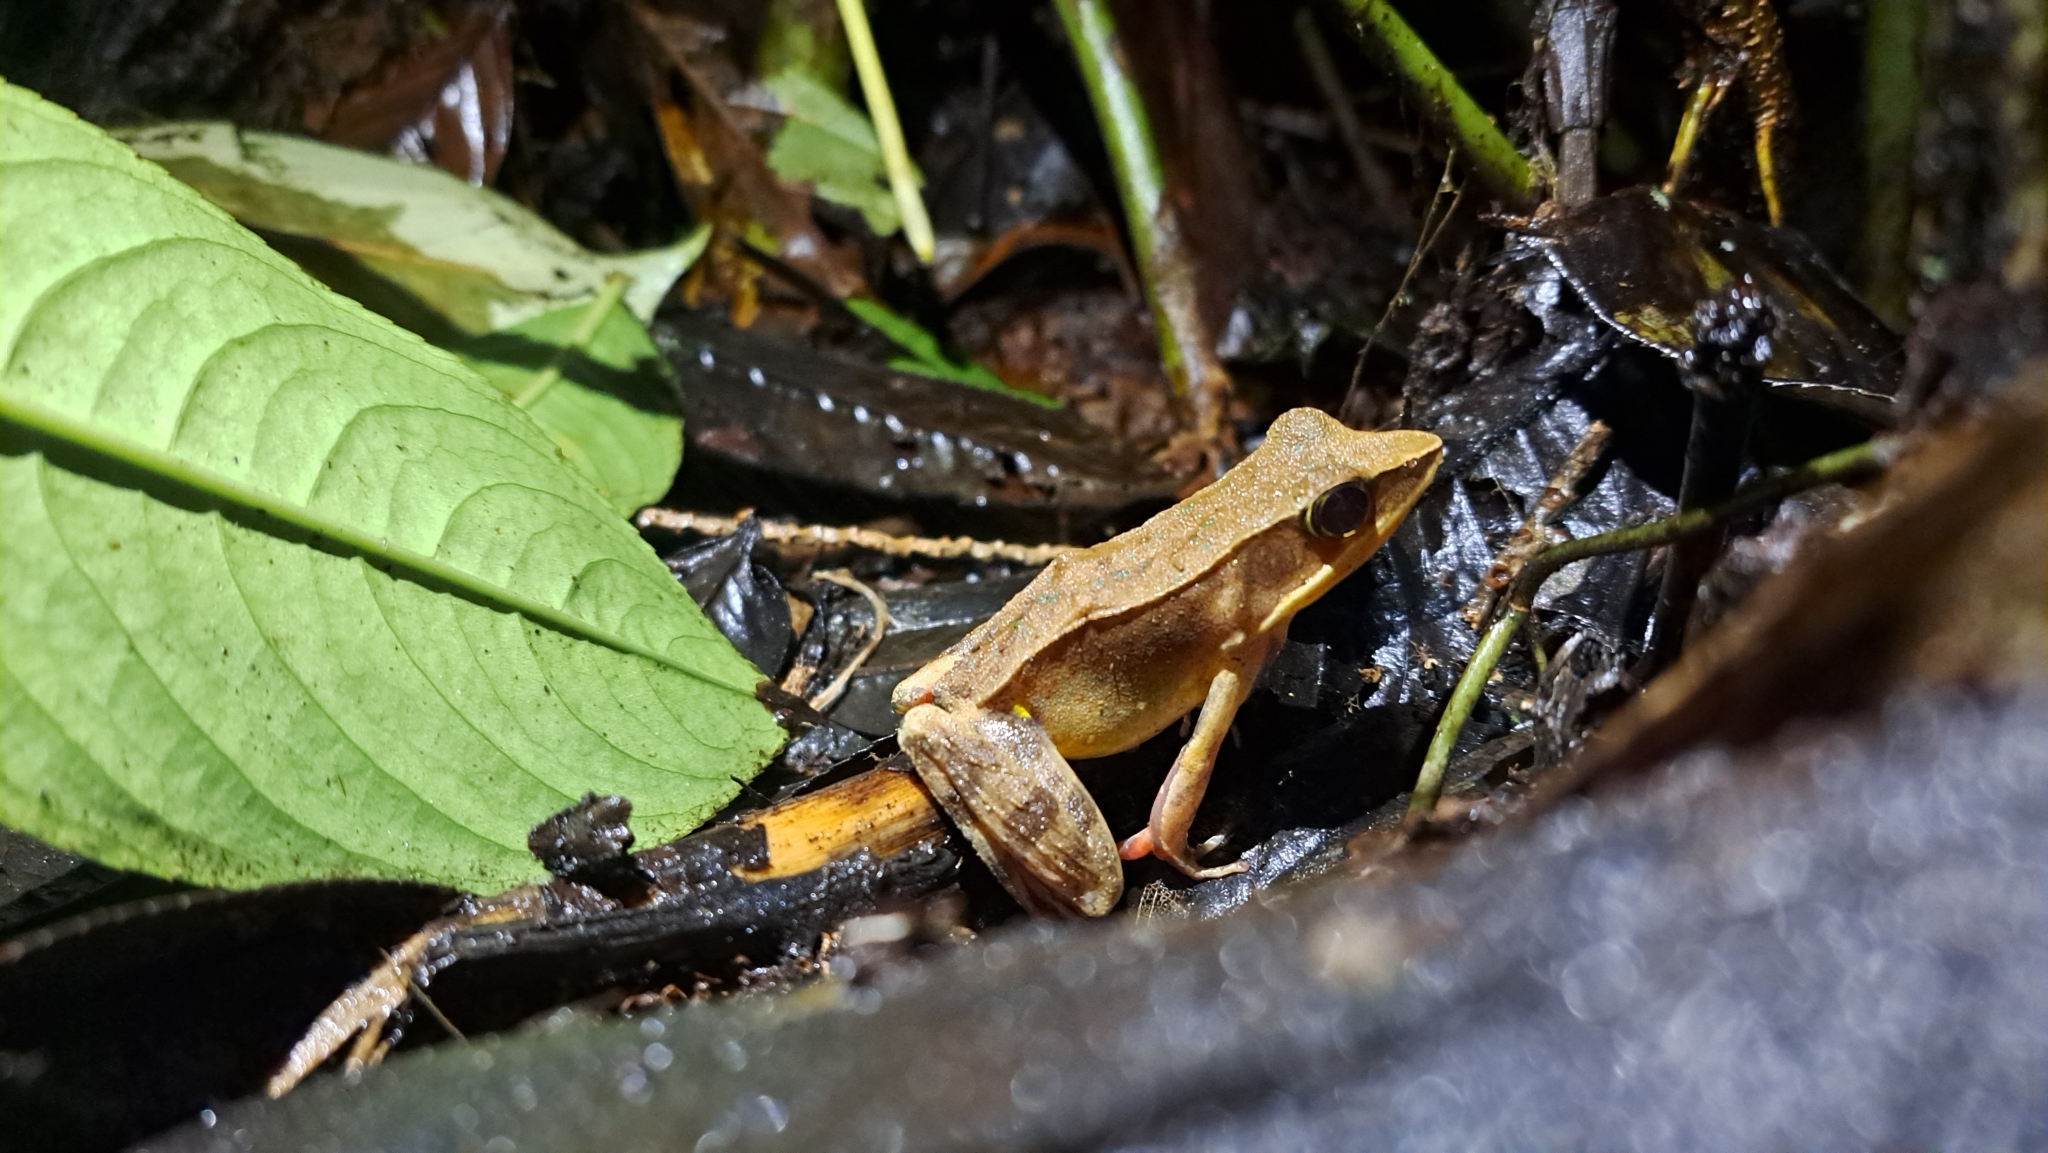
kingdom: Animalia
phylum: Chordata
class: Amphibia
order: Anura
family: Ranidae
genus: Lithobates
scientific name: Lithobates warszewitschii
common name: Warszewitsch's frog
